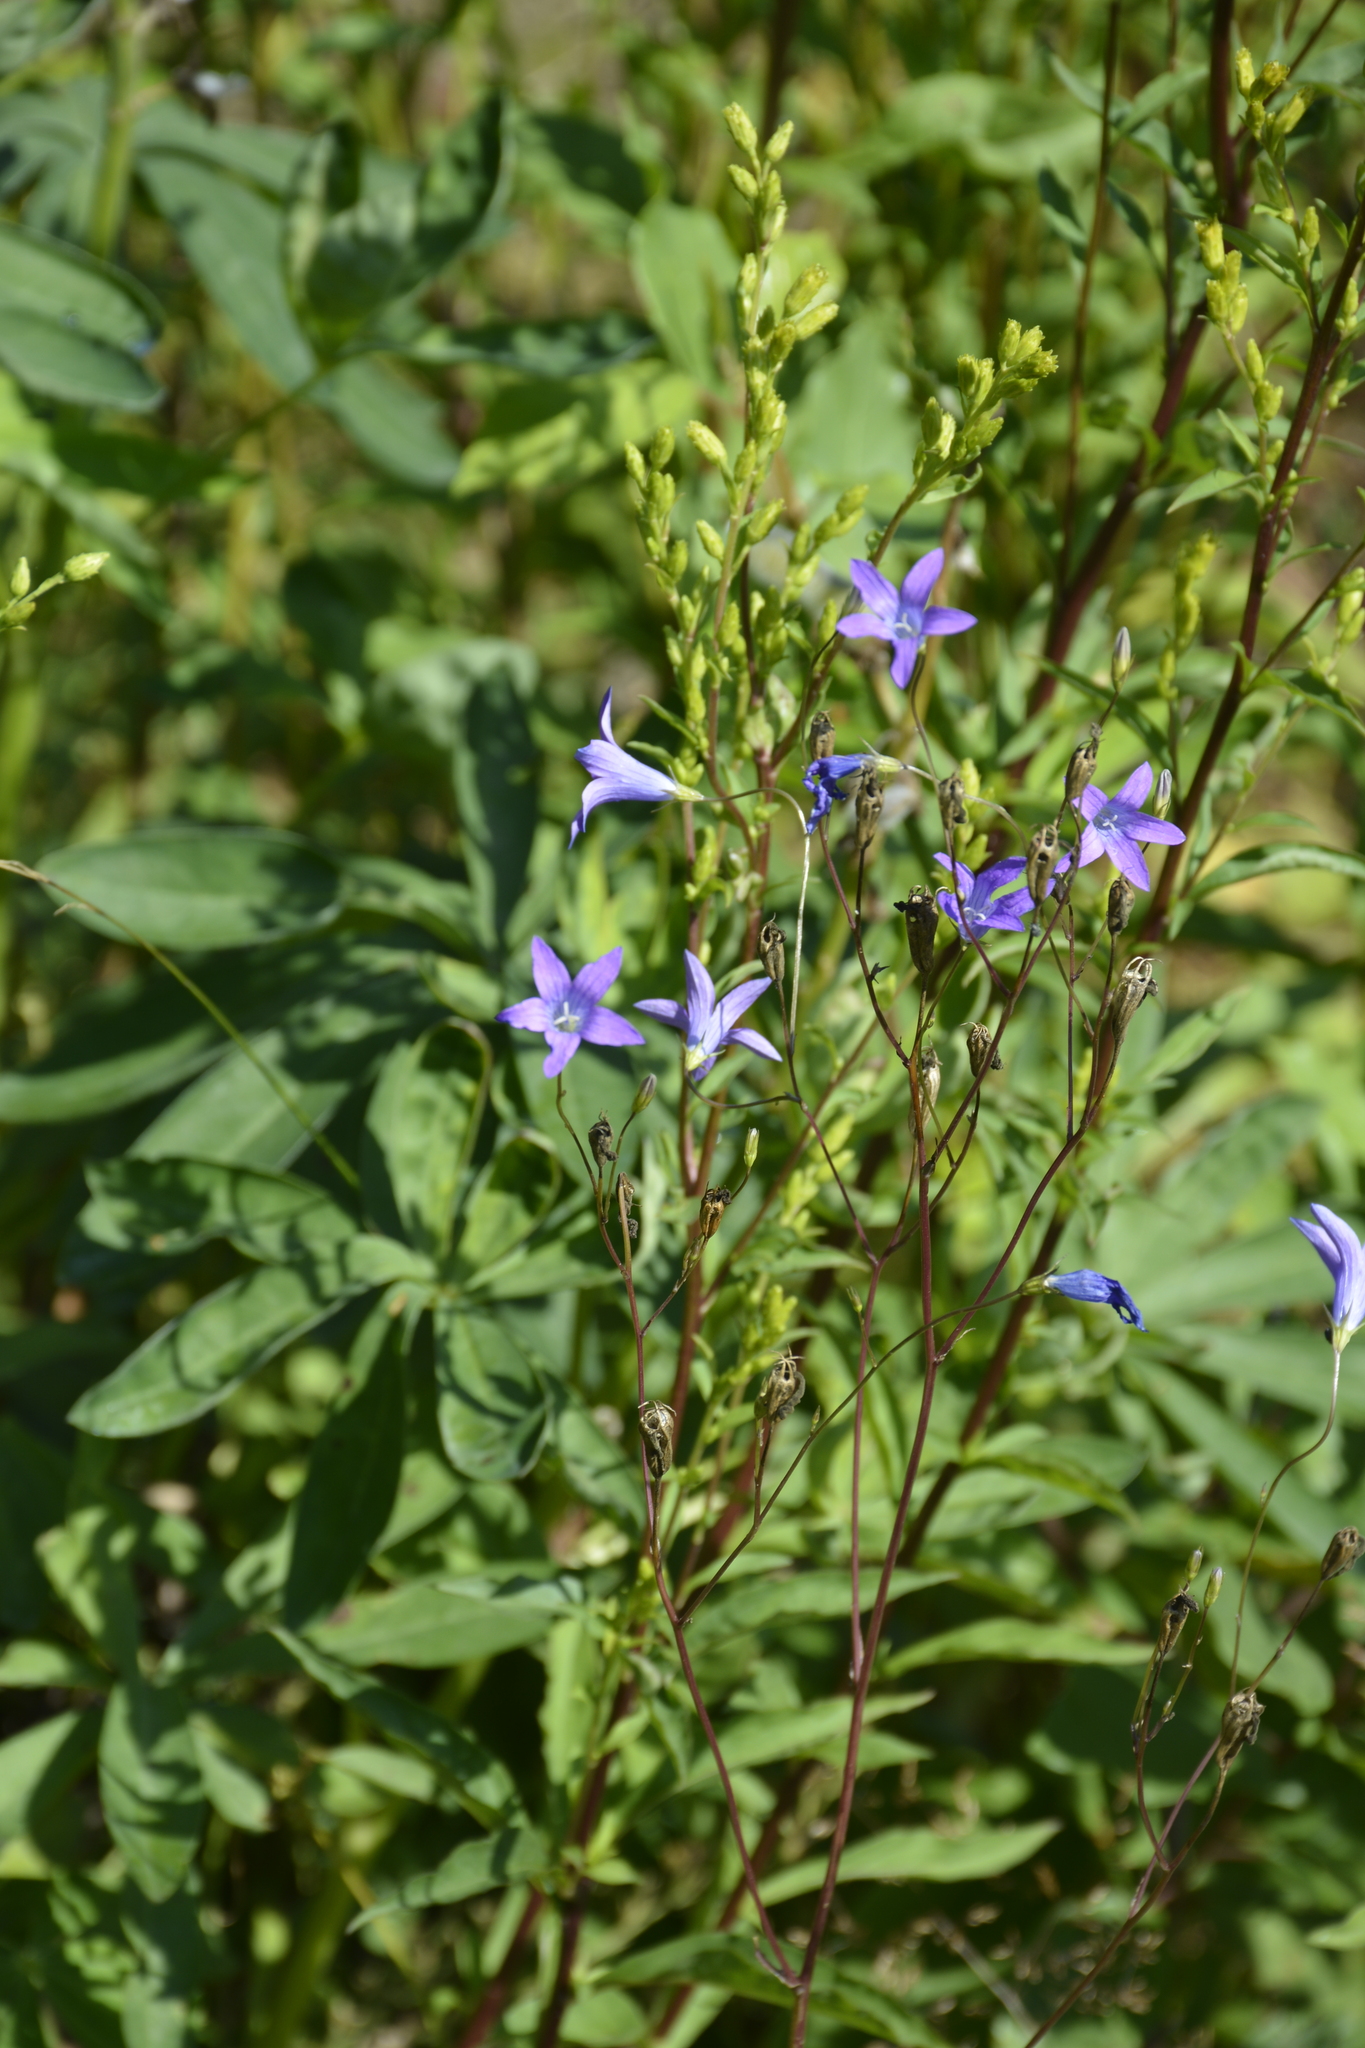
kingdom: Plantae
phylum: Tracheophyta
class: Magnoliopsida
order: Asterales
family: Campanulaceae
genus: Campanula
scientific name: Campanula patula
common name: Spreading bellflower
